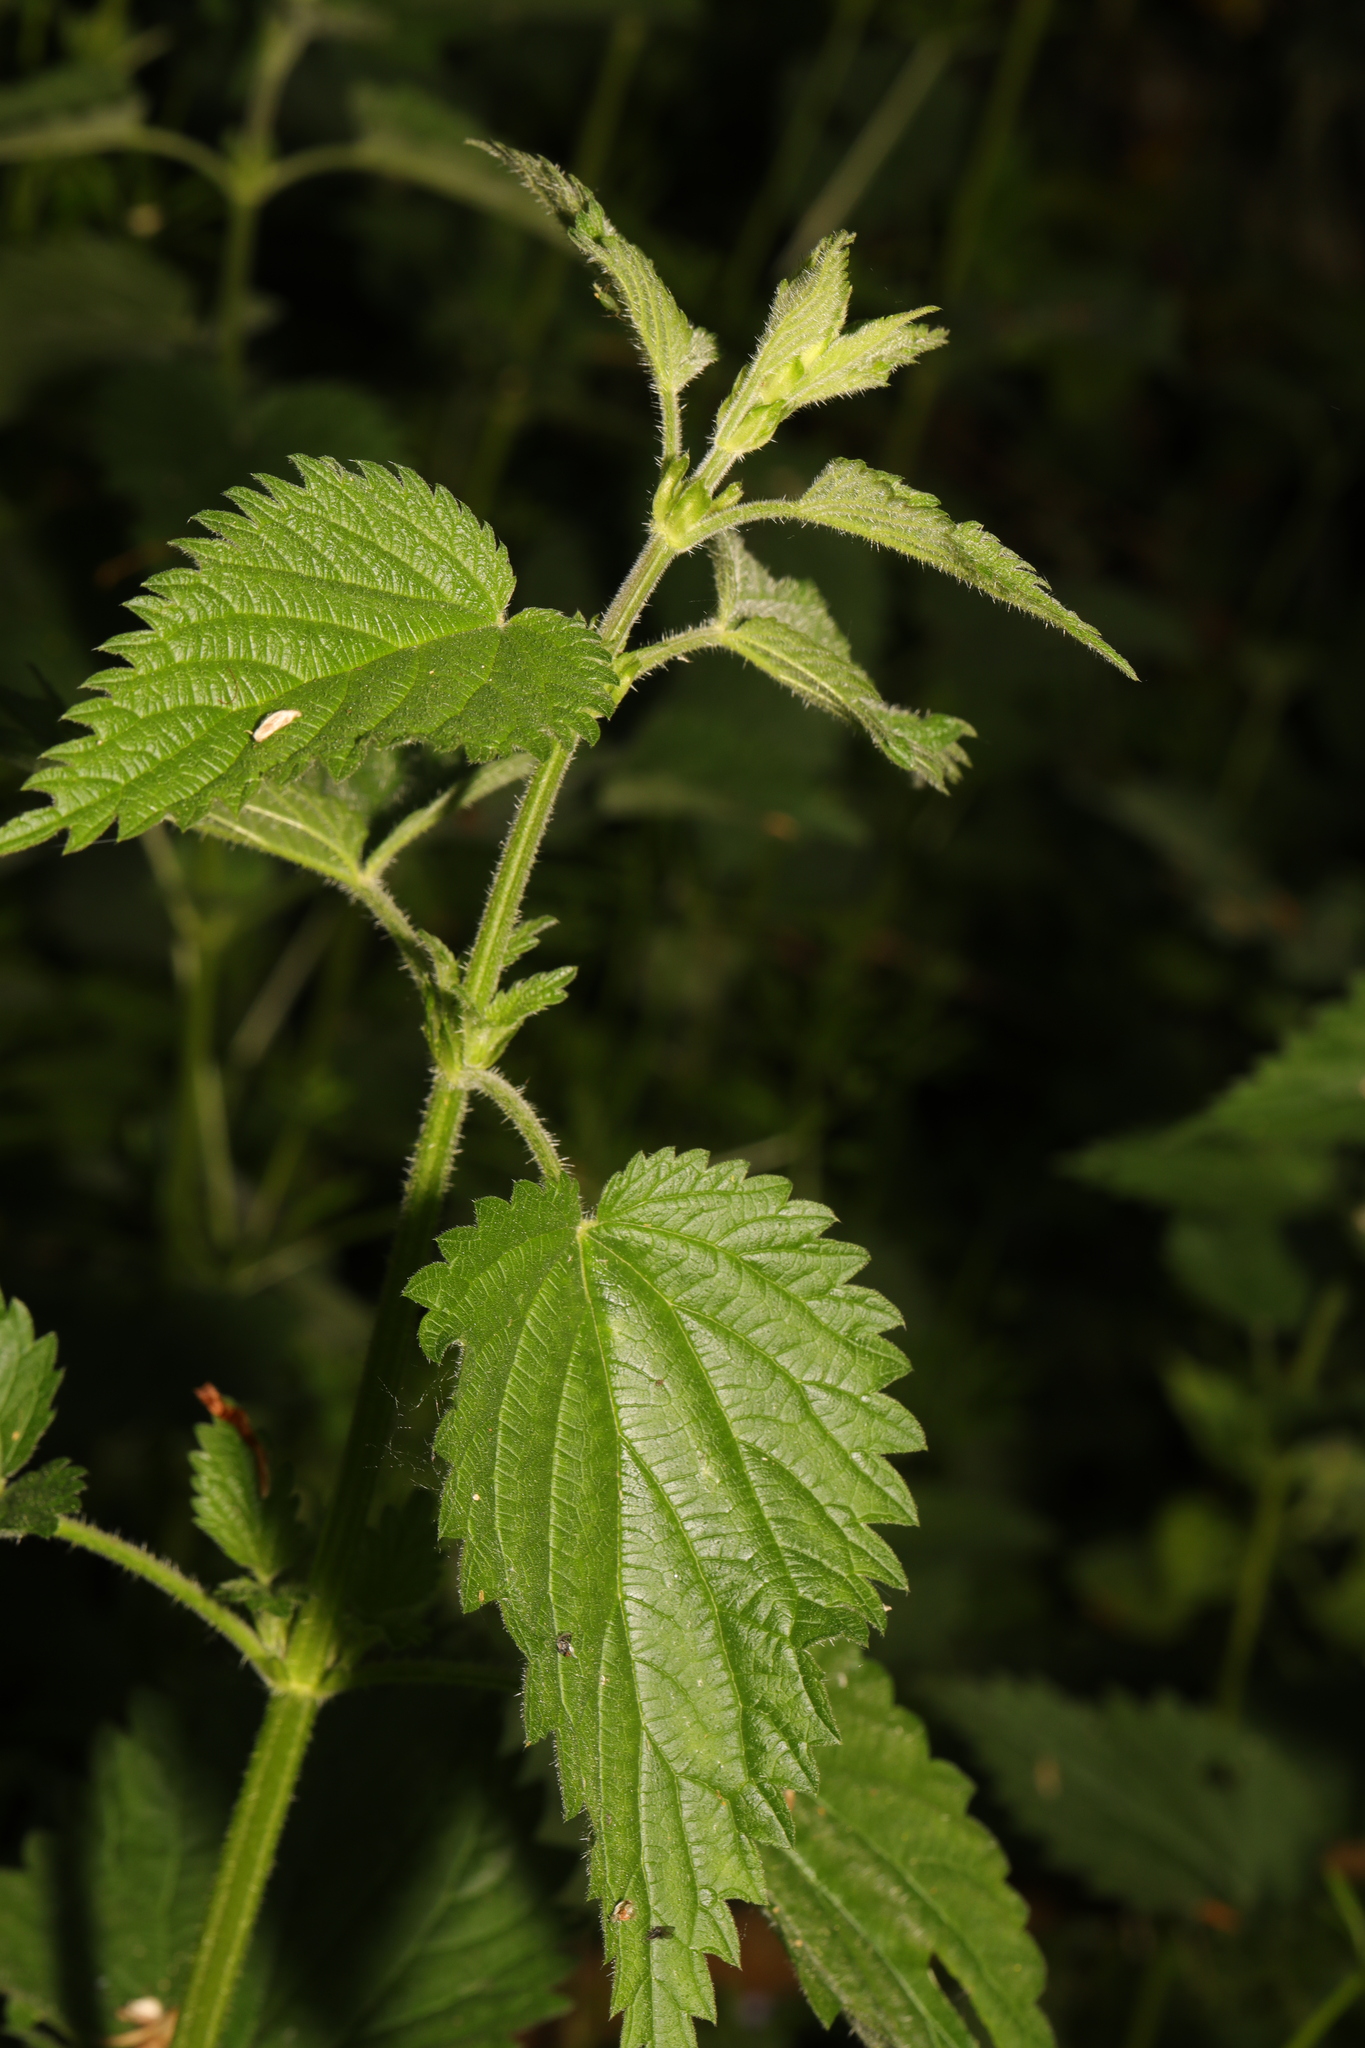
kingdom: Plantae
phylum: Tracheophyta
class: Magnoliopsida
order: Rosales
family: Urticaceae
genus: Urtica
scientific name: Urtica dioica
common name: Common nettle
